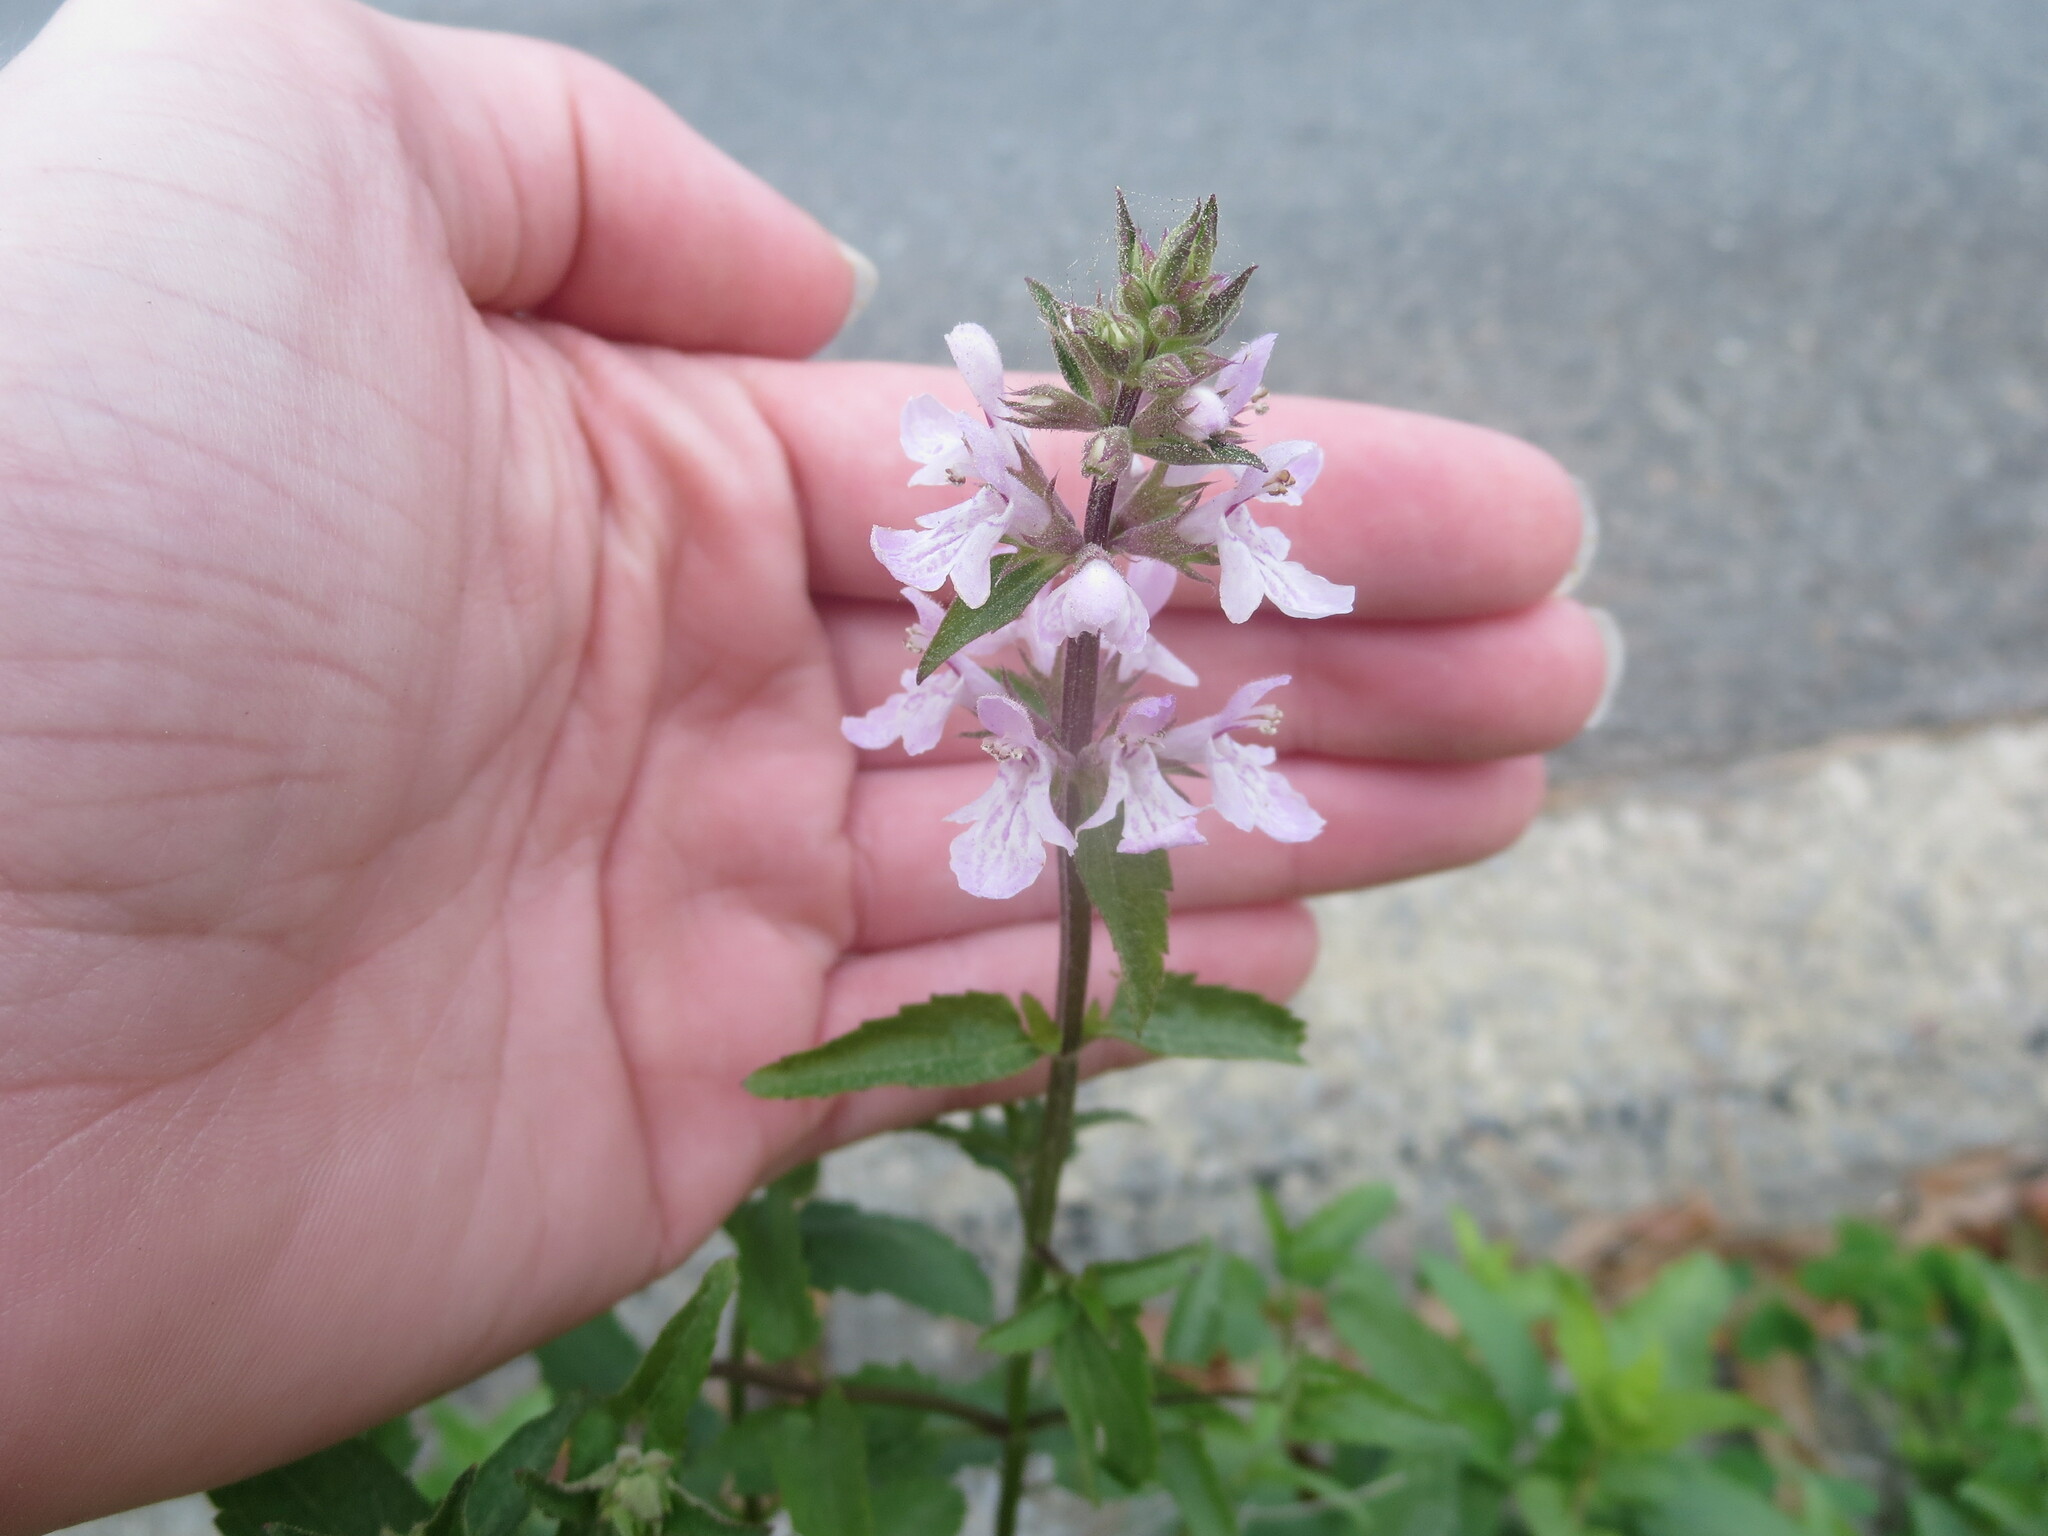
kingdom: Plantae
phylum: Tracheophyta
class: Magnoliopsida
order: Lamiales
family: Lamiaceae
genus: Stachys
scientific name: Stachys floridana
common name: Florida betony
